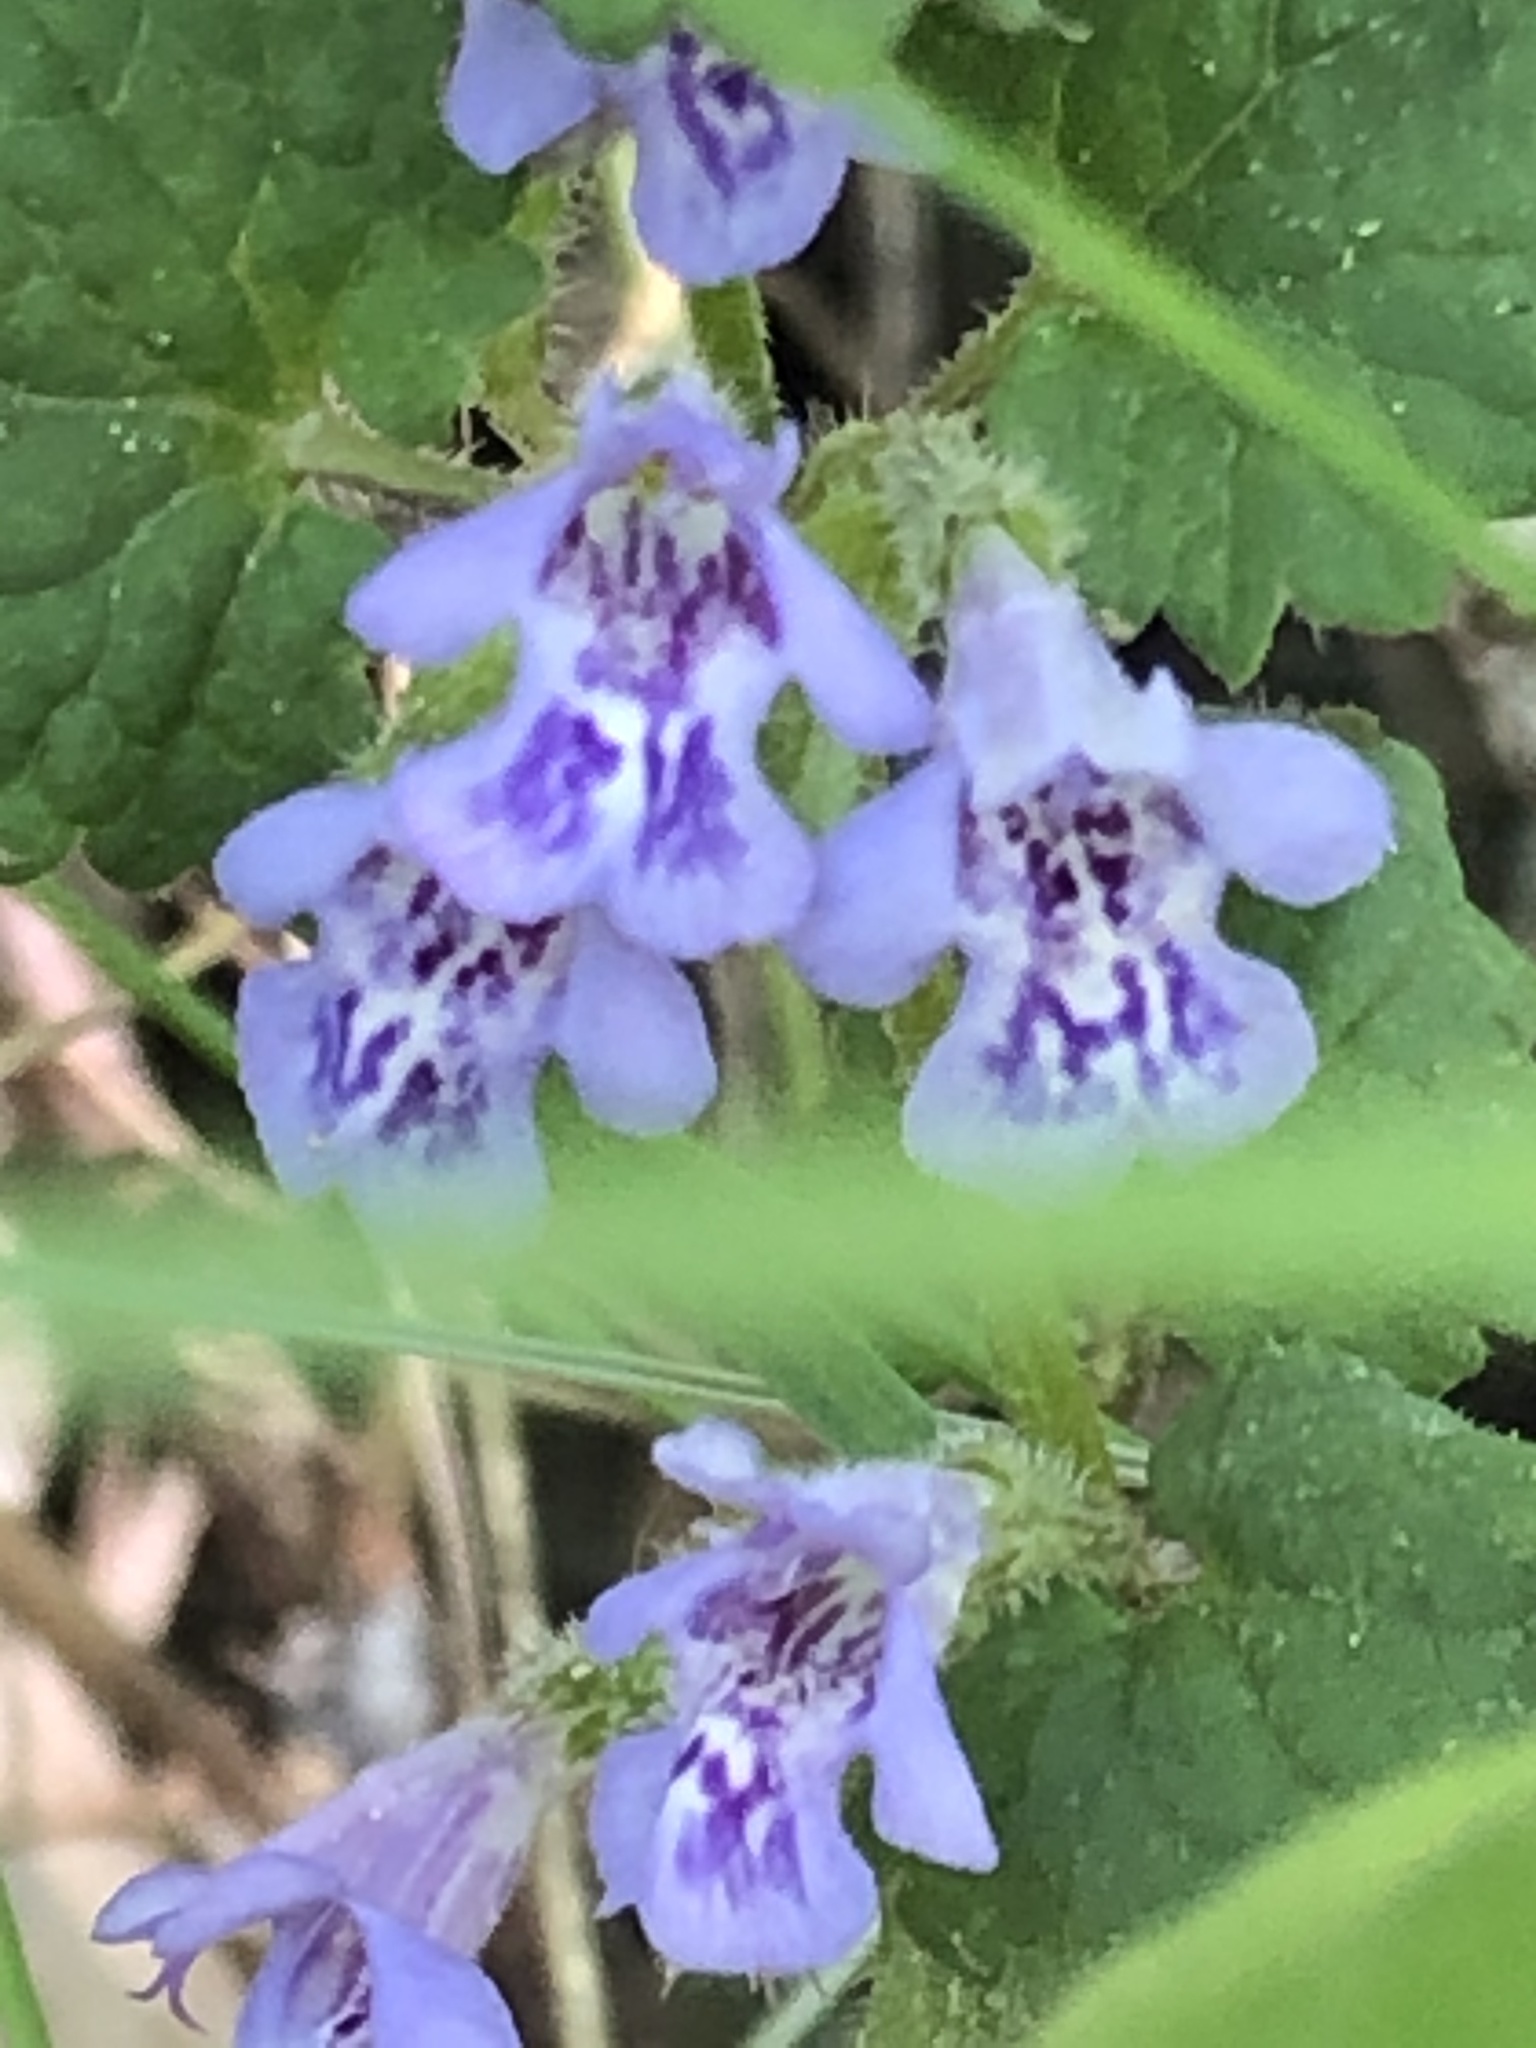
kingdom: Plantae
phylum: Tracheophyta
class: Magnoliopsida
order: Lamiales
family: Lamiaceae
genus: Glechoma
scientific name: Glechoma hederacea
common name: Ground ivy
